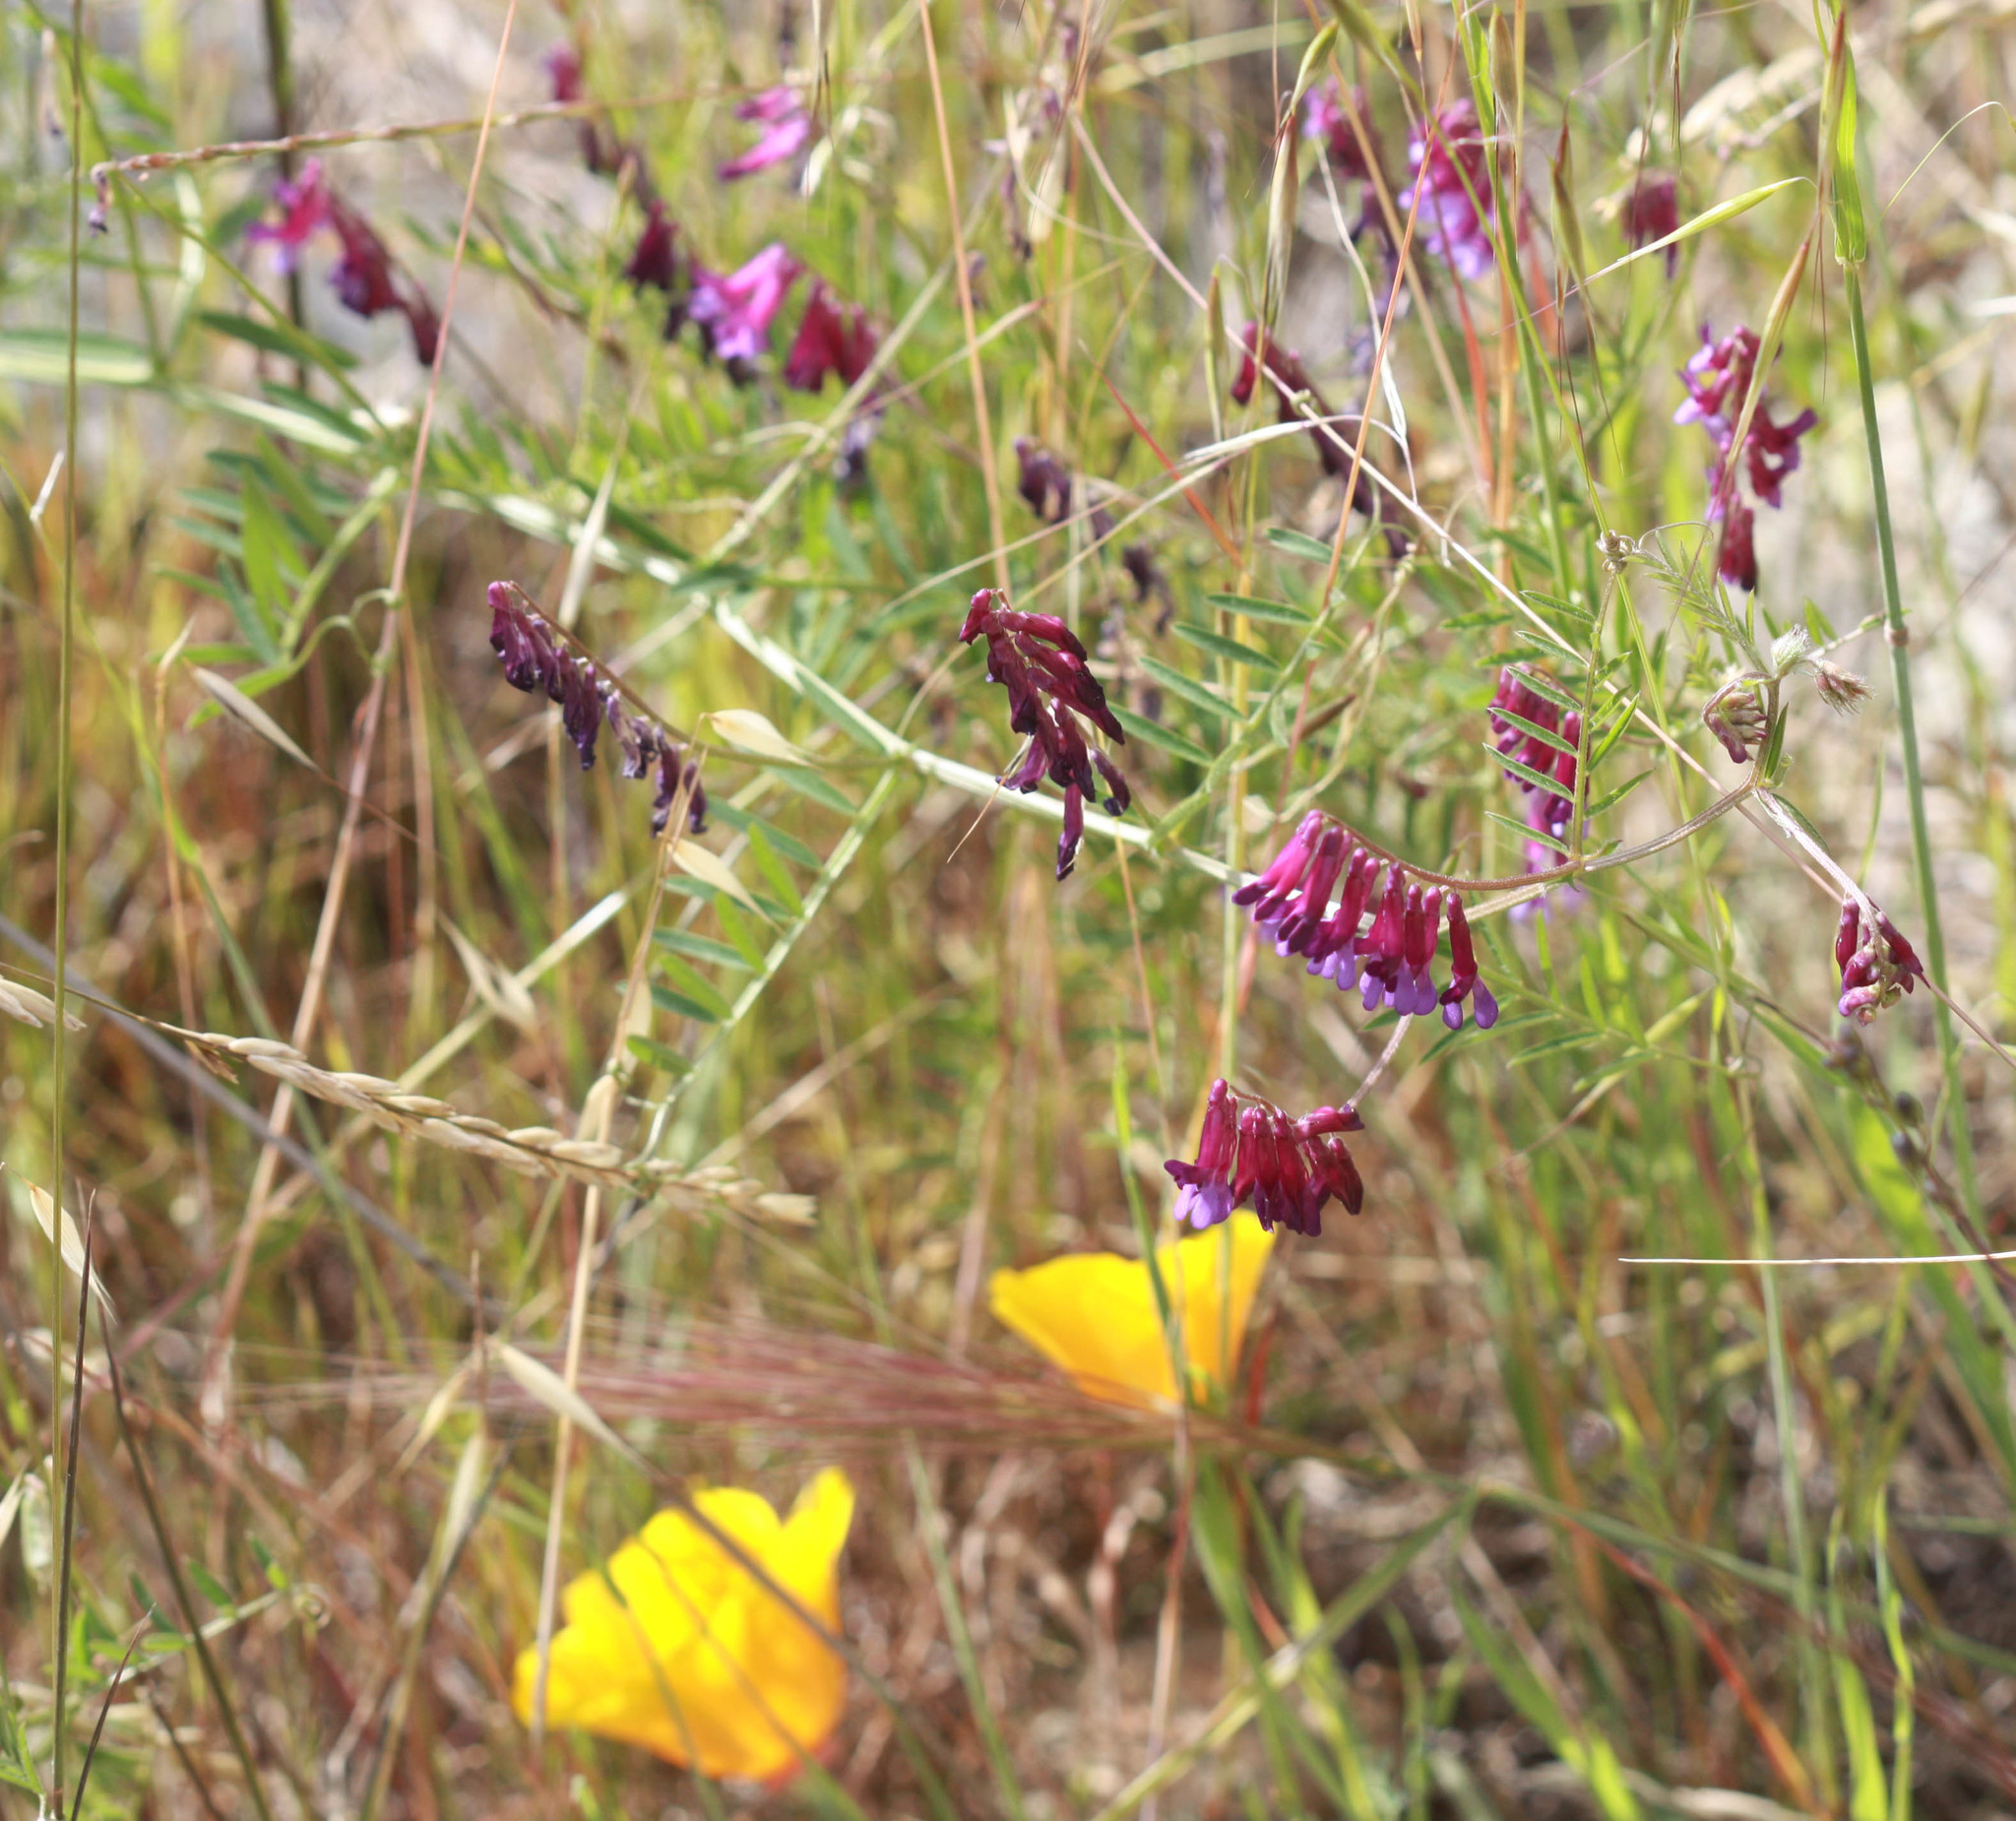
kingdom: Plantae
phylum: Tracheophyta
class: Magnoliopsida
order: Fabales
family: Fabaceae
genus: Vicia
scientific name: Vicia villosa
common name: Fodder vetch
